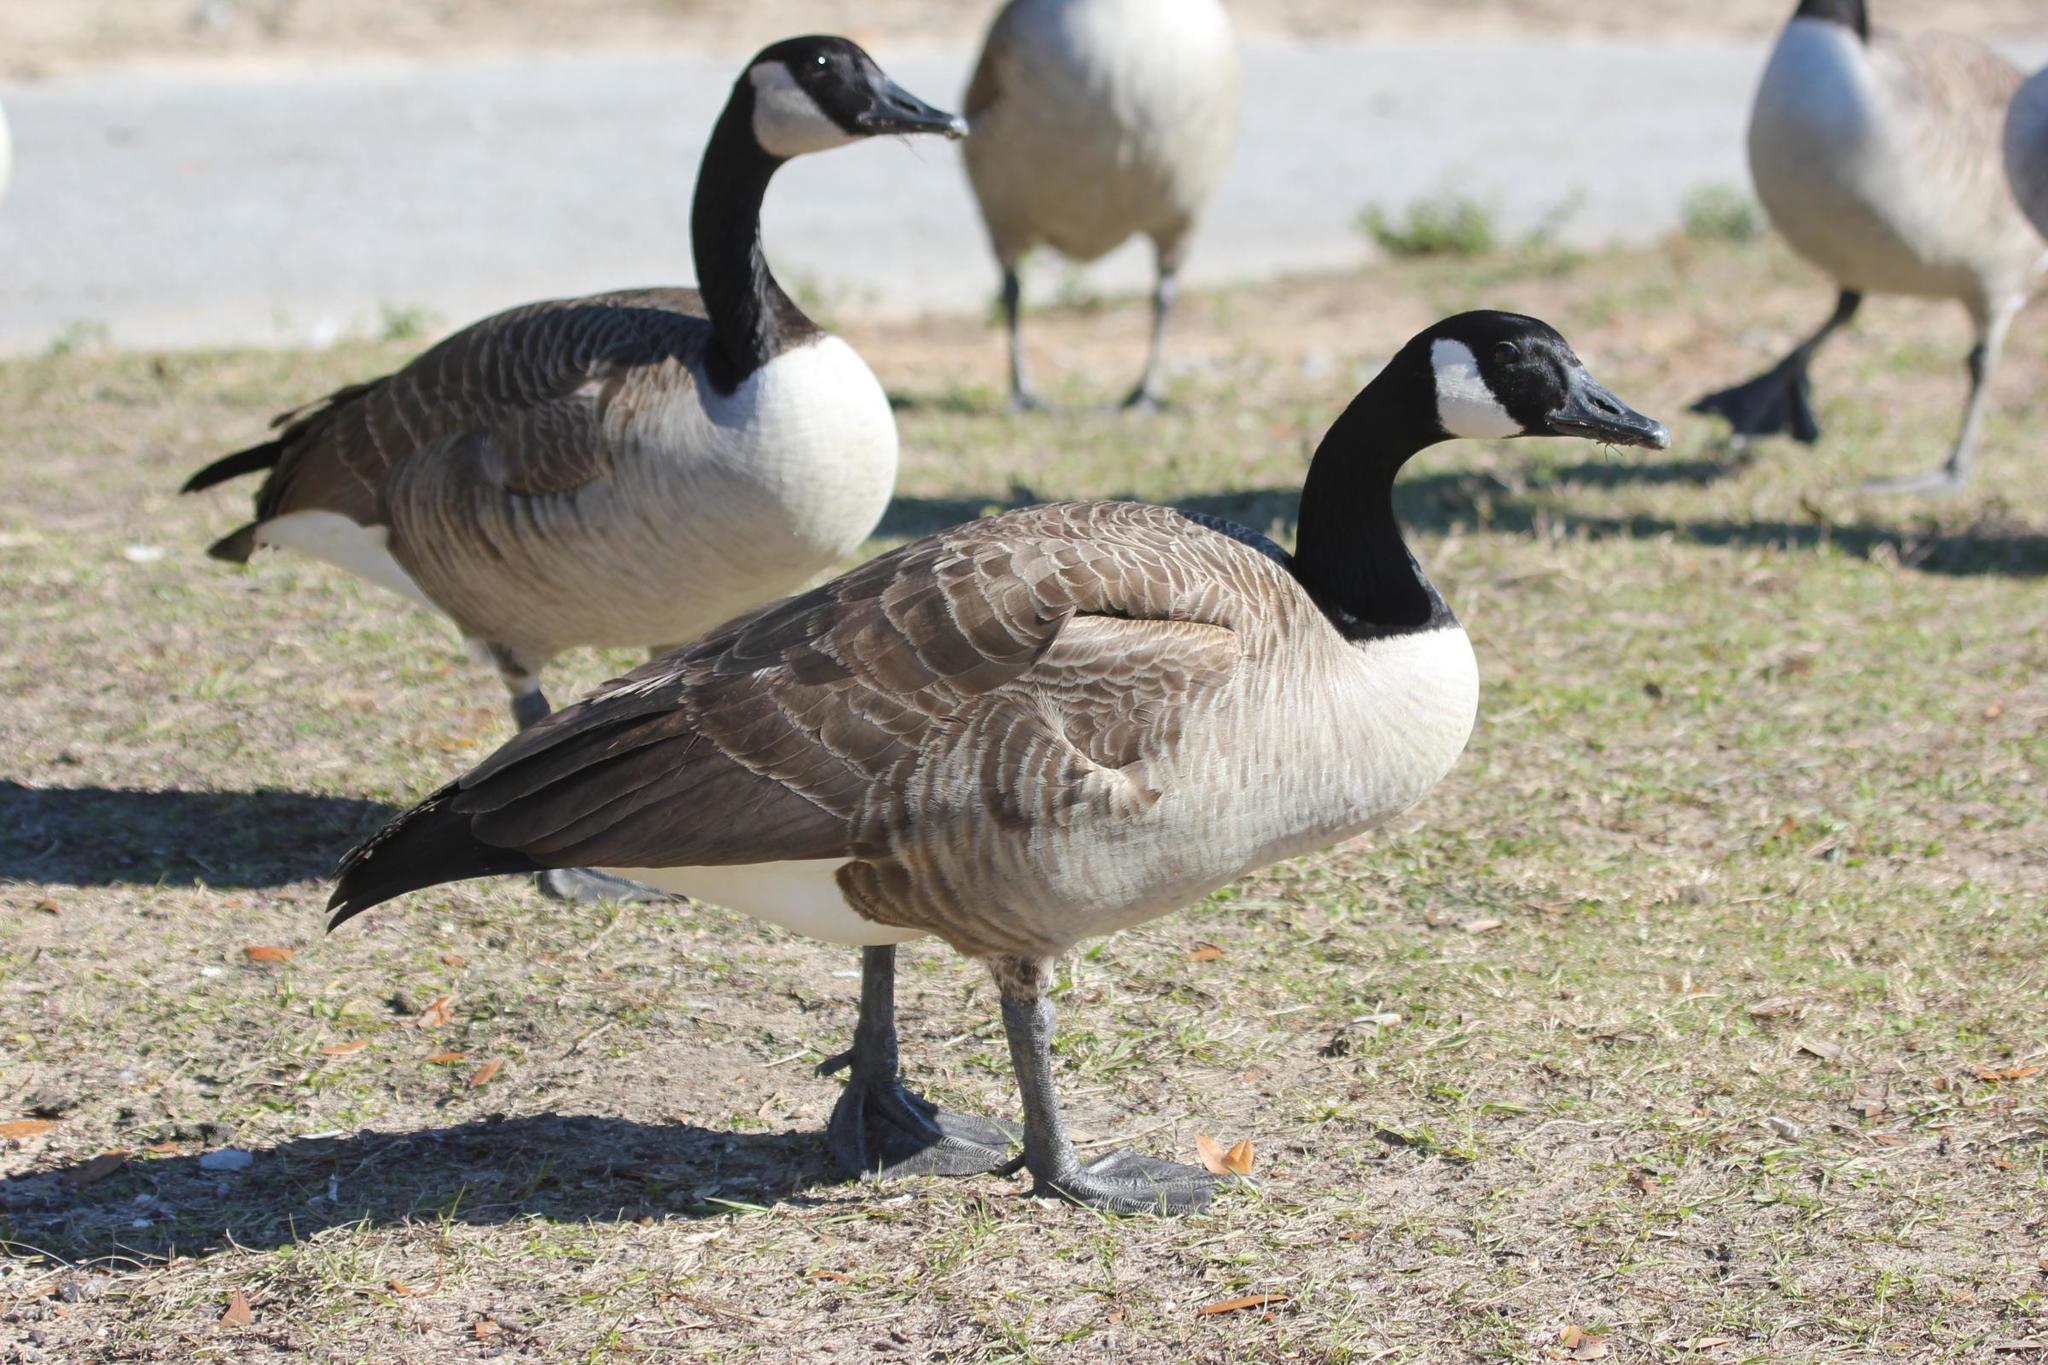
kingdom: Animalia
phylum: Chordata
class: Aves
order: Anseriformes
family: Anatidae
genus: Branta
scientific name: Branta canadensis
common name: Canada goose
